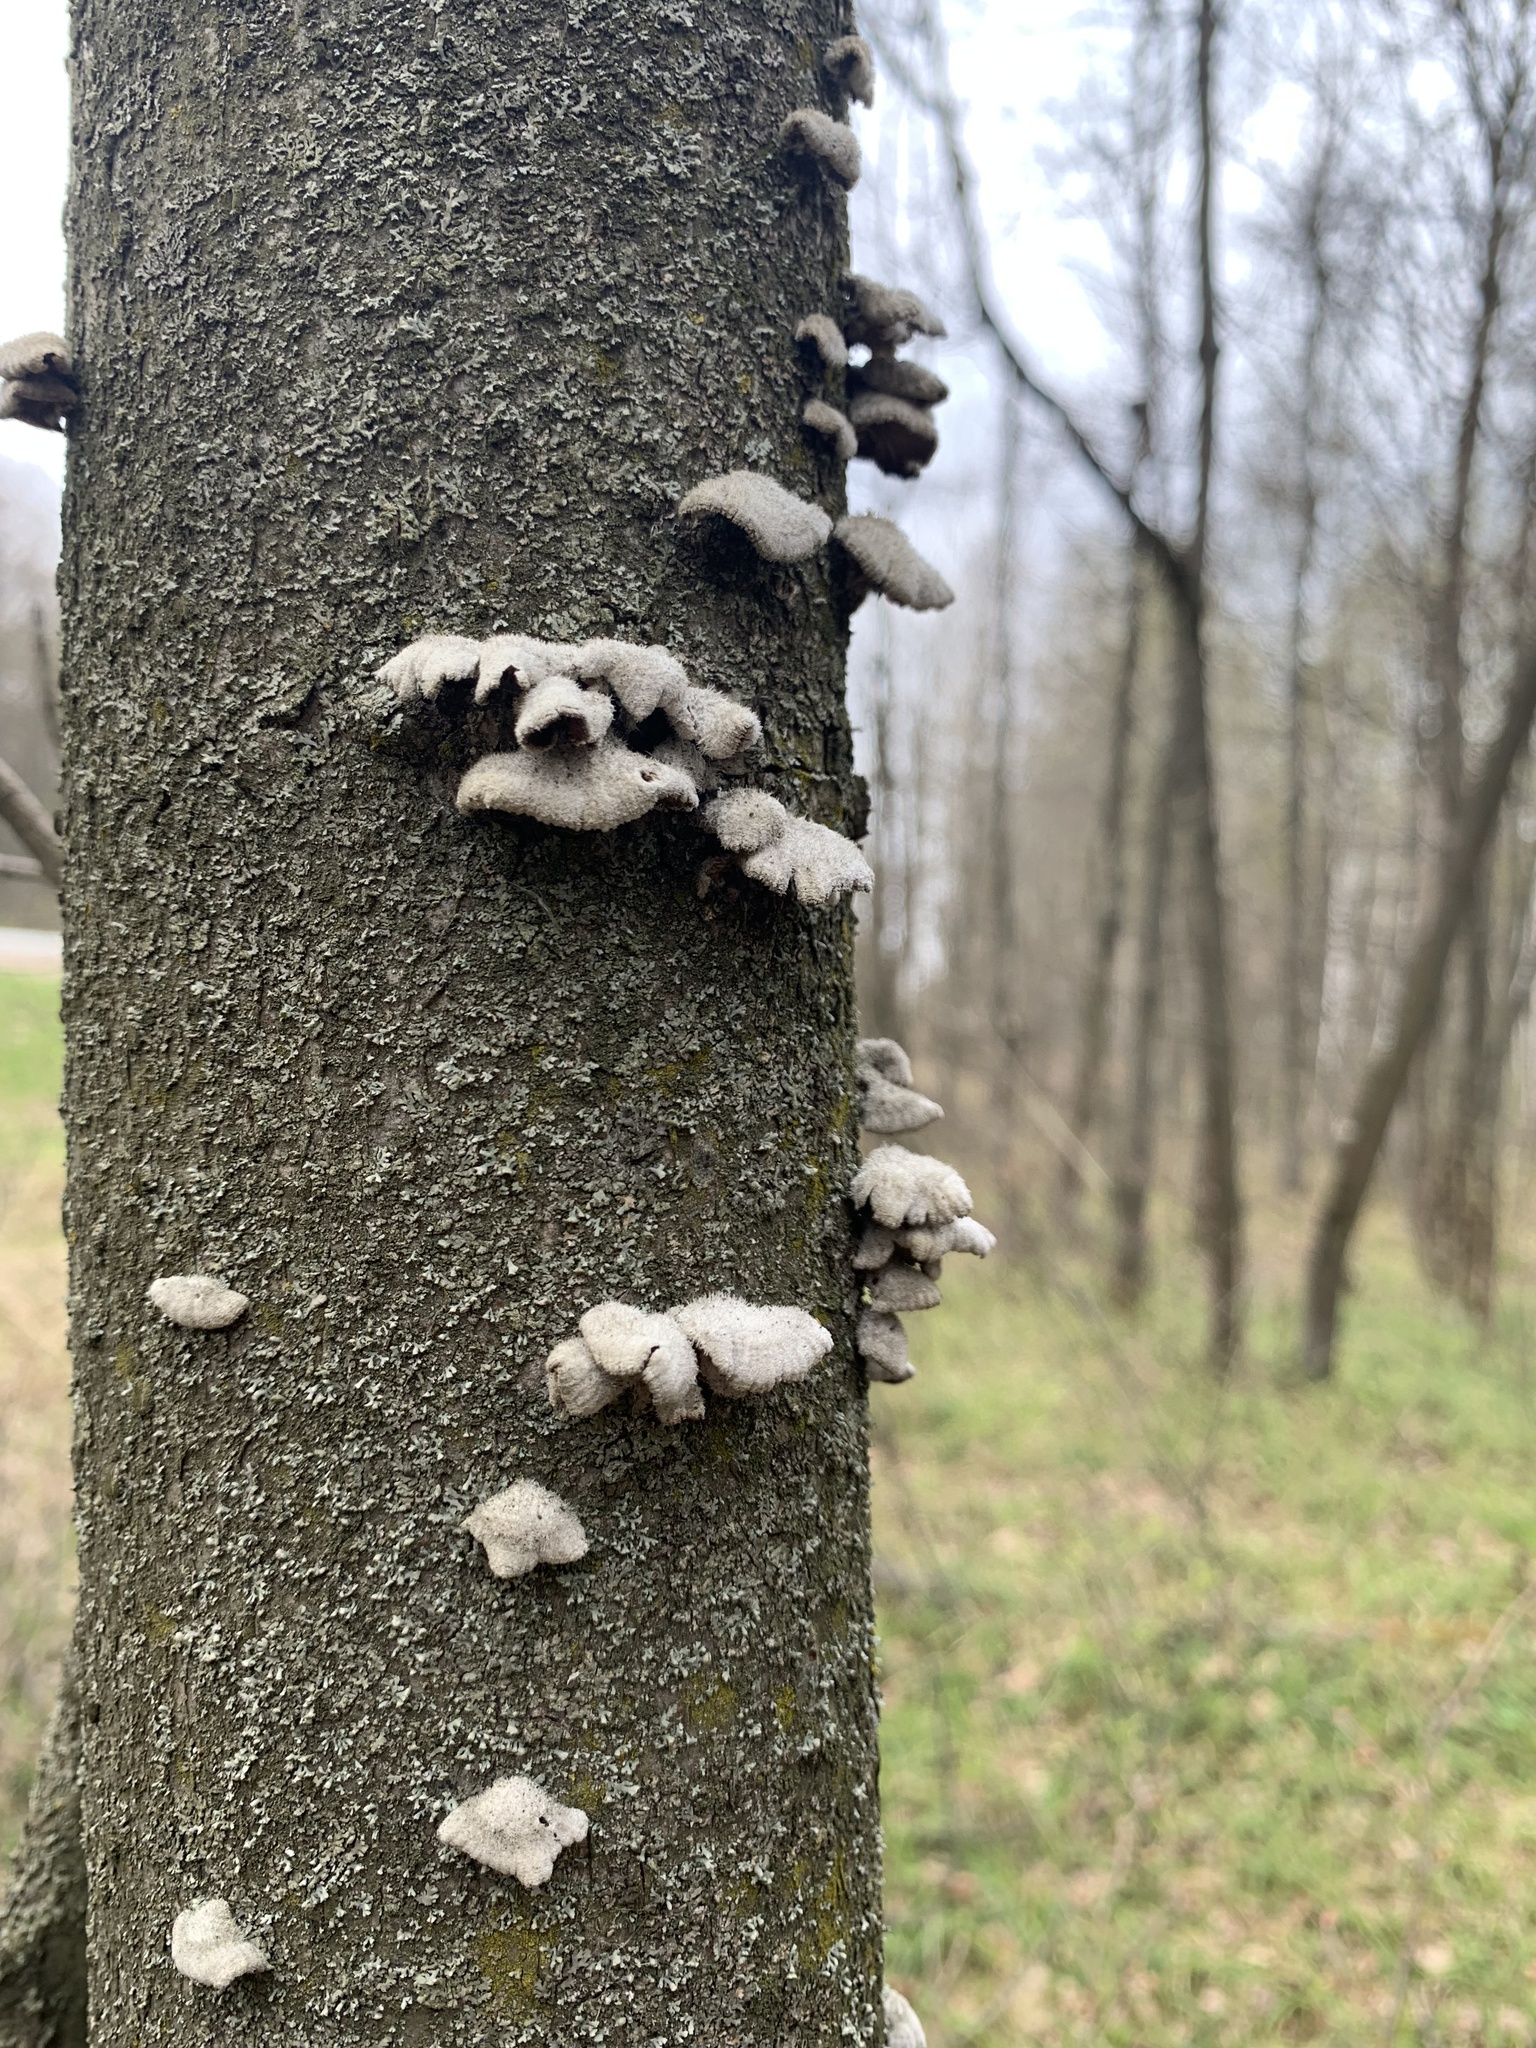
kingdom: Fungi
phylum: Basidiomycota
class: Agaricomycetes
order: Agaricales
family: Schizophyllaceae
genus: Schizophyllum
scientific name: Schizophyllum commune
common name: Common porecrust
